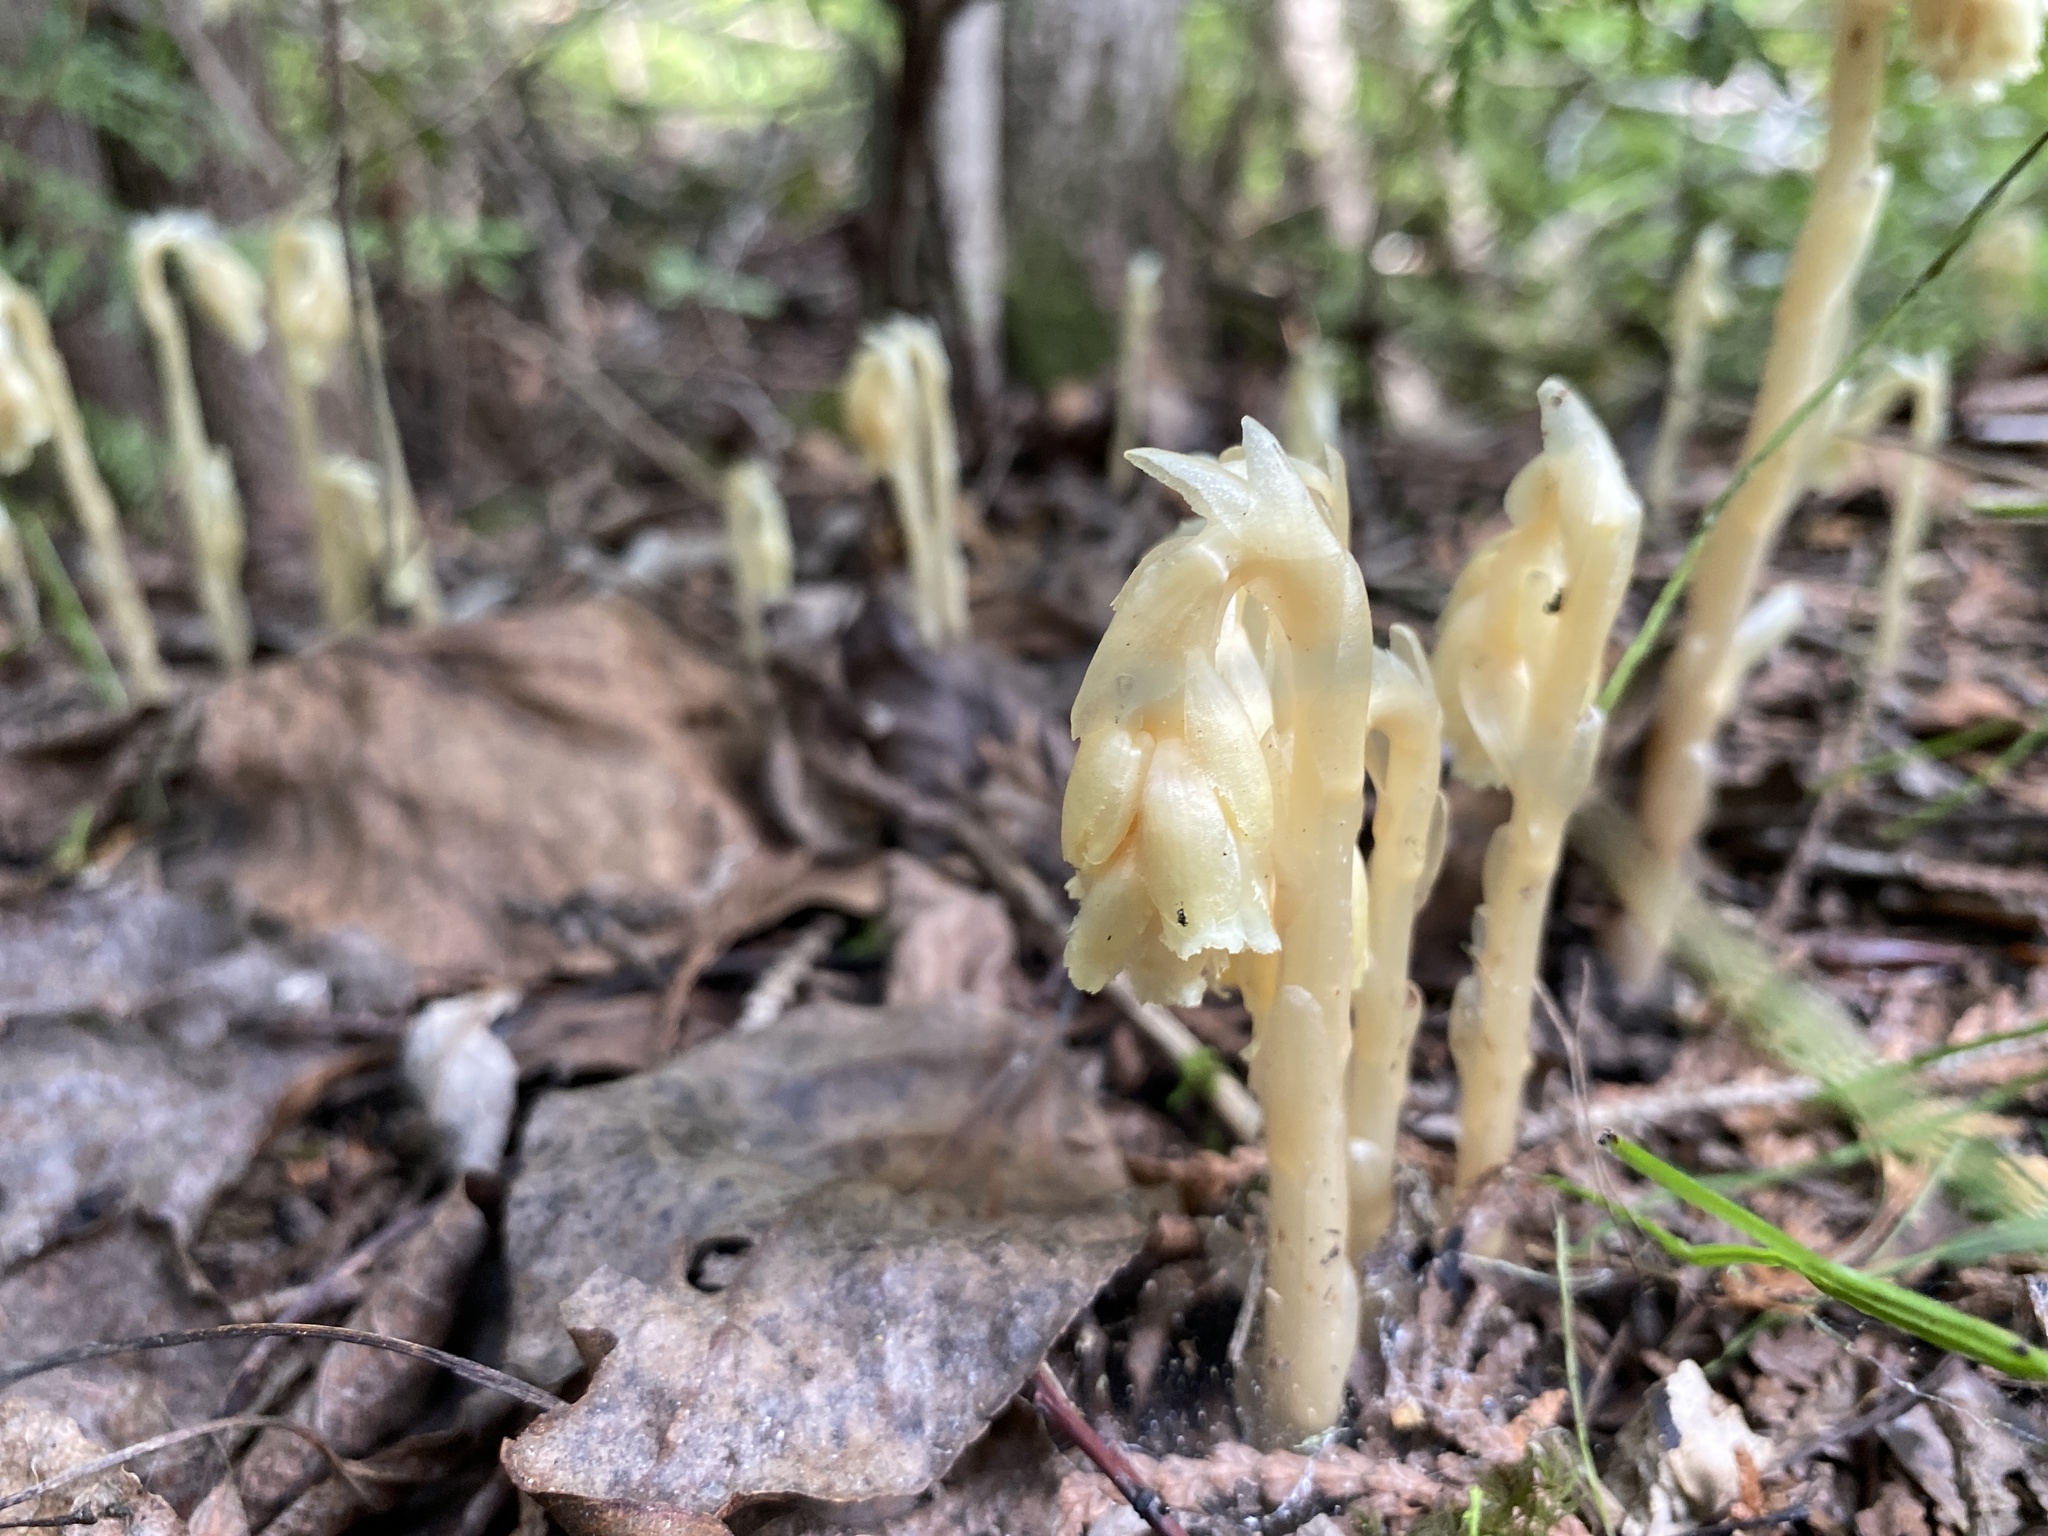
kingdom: Plantae
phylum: Tracheophyta
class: Magnoliopsida
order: Ericales
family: Ericaceae
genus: Hypopitys
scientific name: Hypopitys monotropa
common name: Yellow bird's-nest
